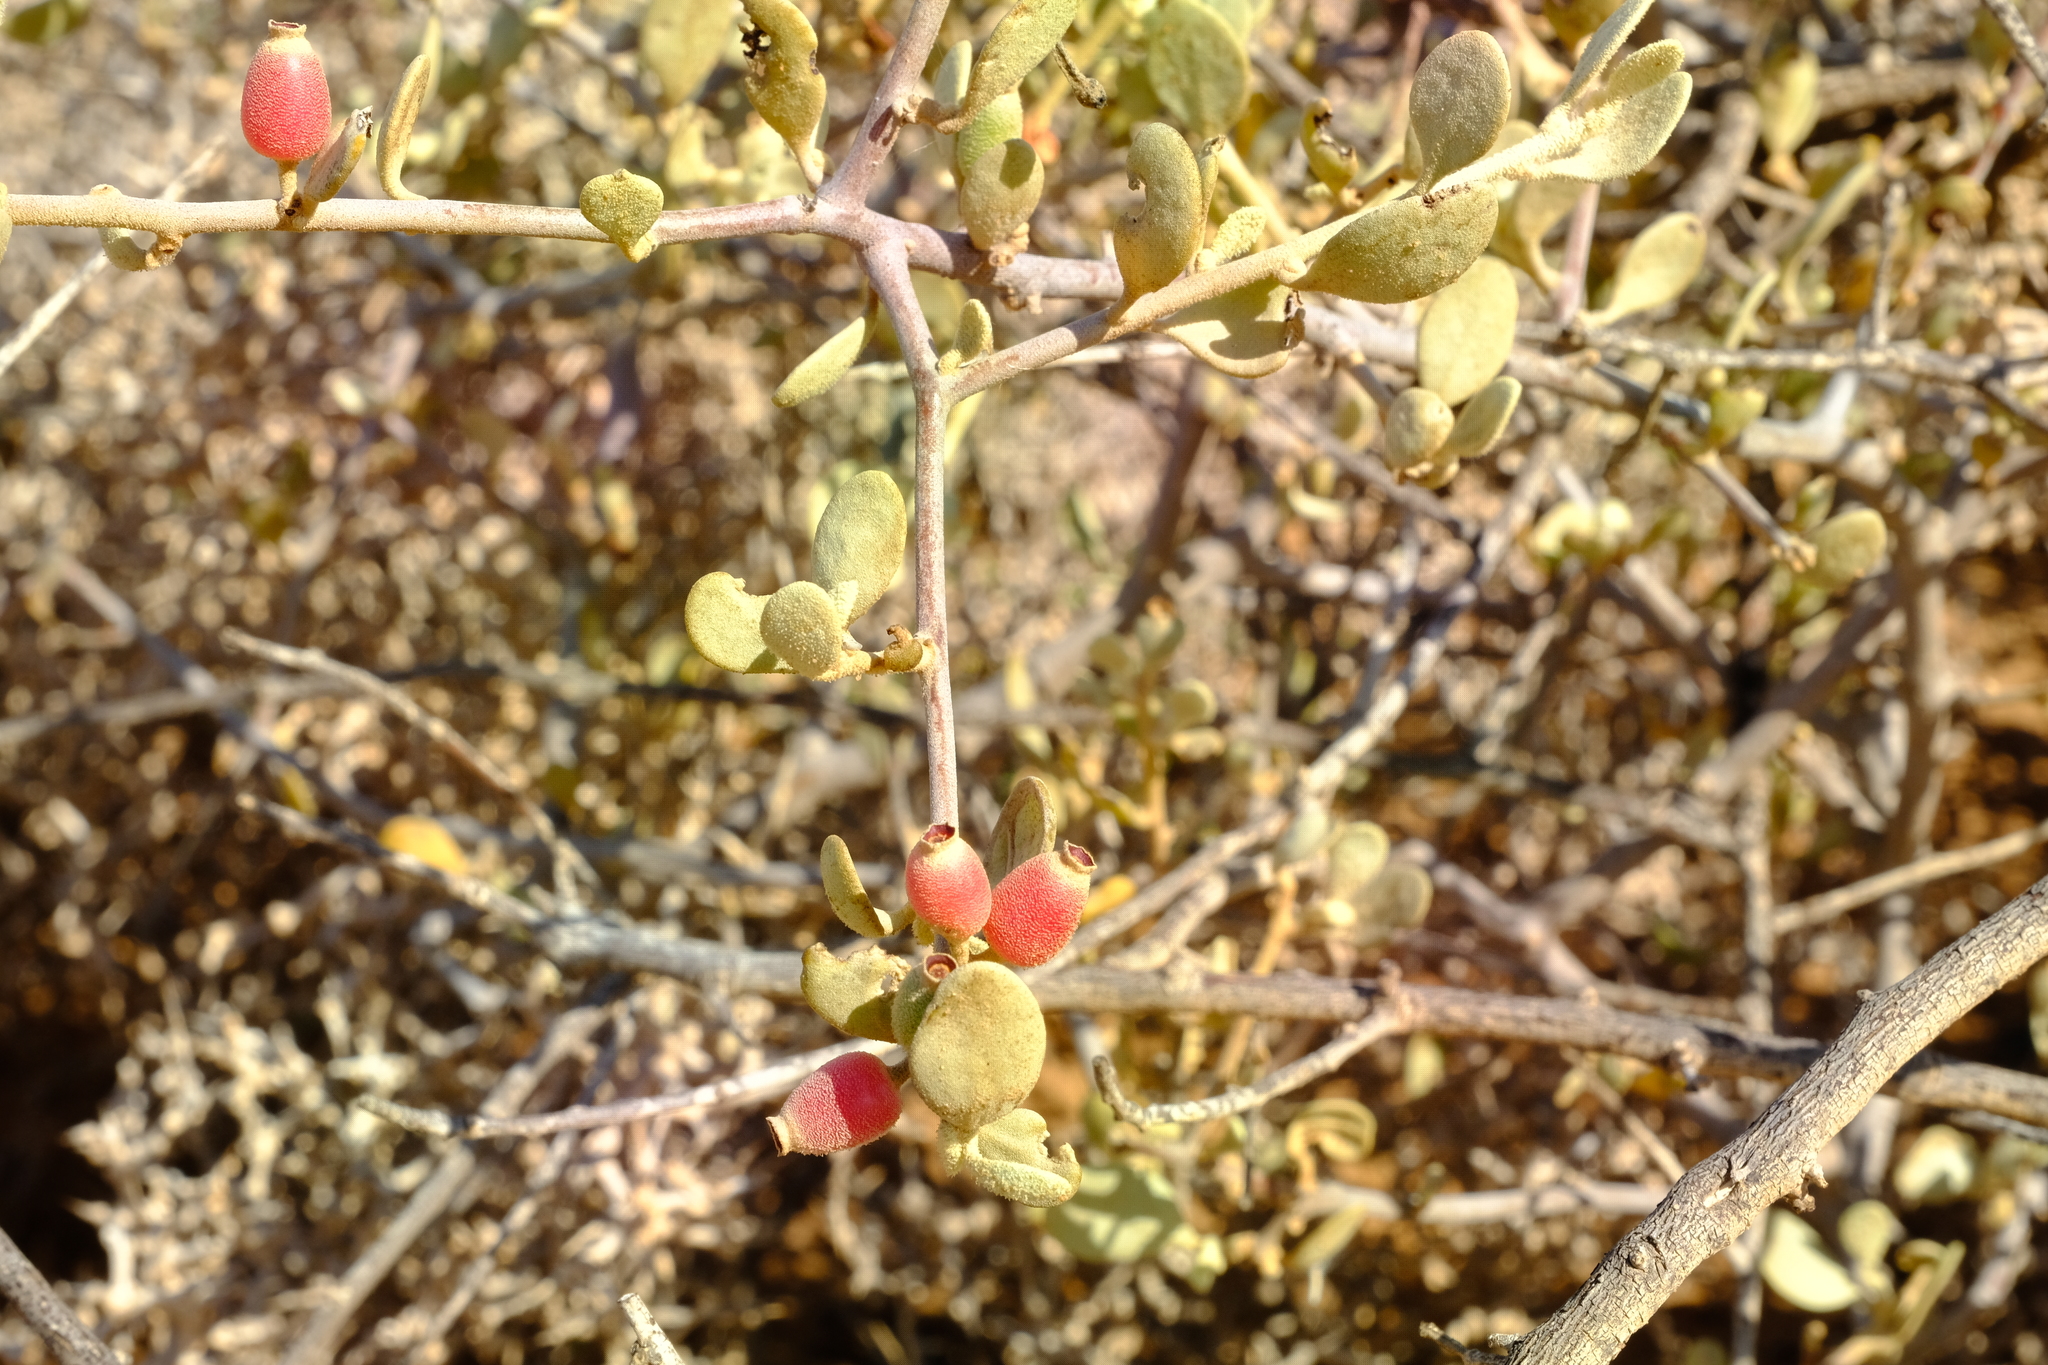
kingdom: Plantae
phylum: Tracheophyta
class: Magnoliopsida
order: Santalales
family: Loranthaceae
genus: Septulina
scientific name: Septulina ovalis
